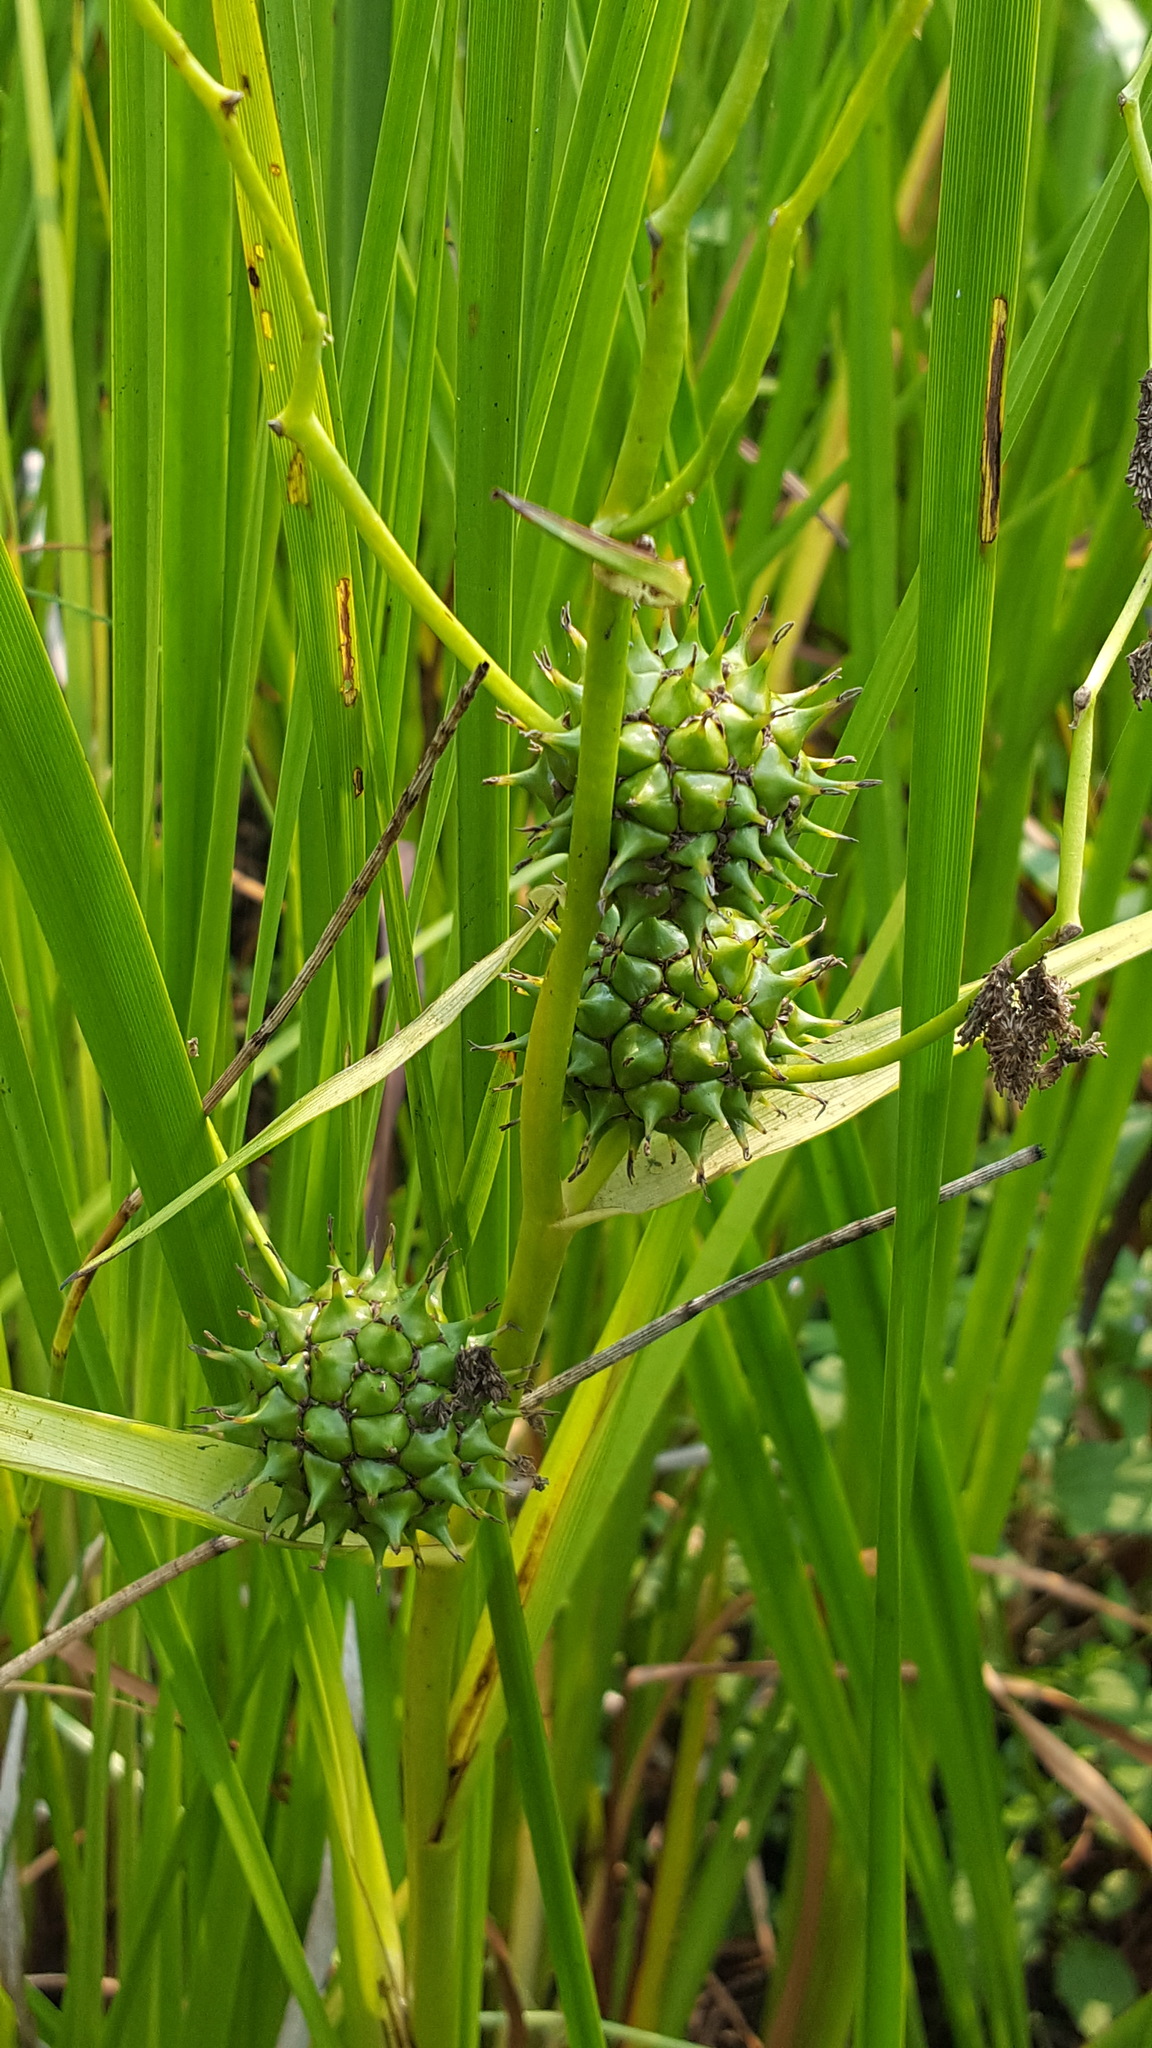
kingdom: Plantae
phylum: Tracheophyta
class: Liliopsida
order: Poales
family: Typhaceae
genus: Sparganium
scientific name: Sparganium eurycarpum
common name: Broad-fruited burreed
